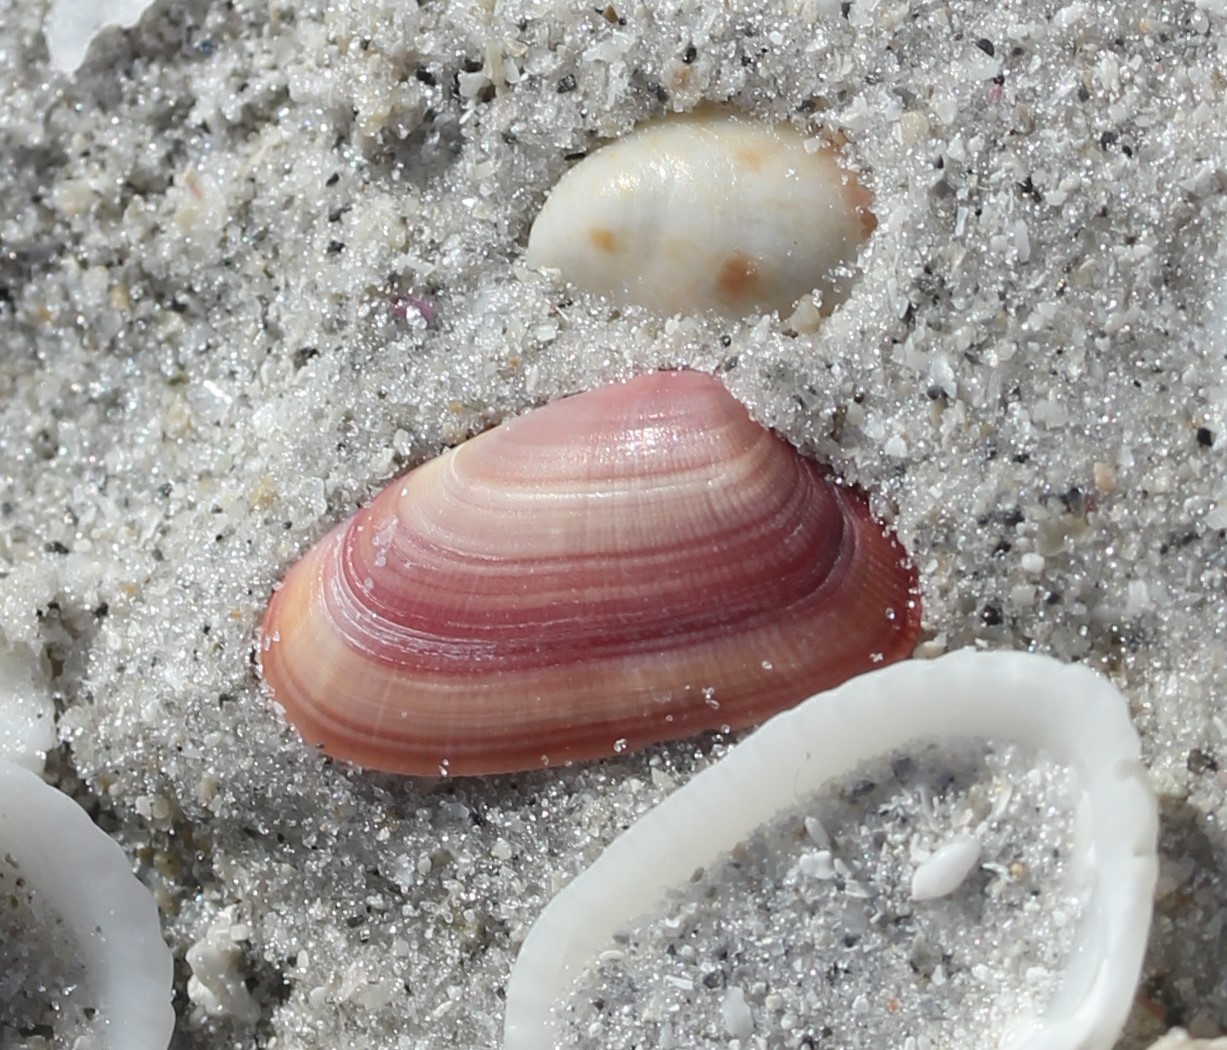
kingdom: Animalia
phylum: Mollusca
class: Bivalvia
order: Cardiida
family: Donacidae
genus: Donax
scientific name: Donax variabilis
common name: Butterfly shell
